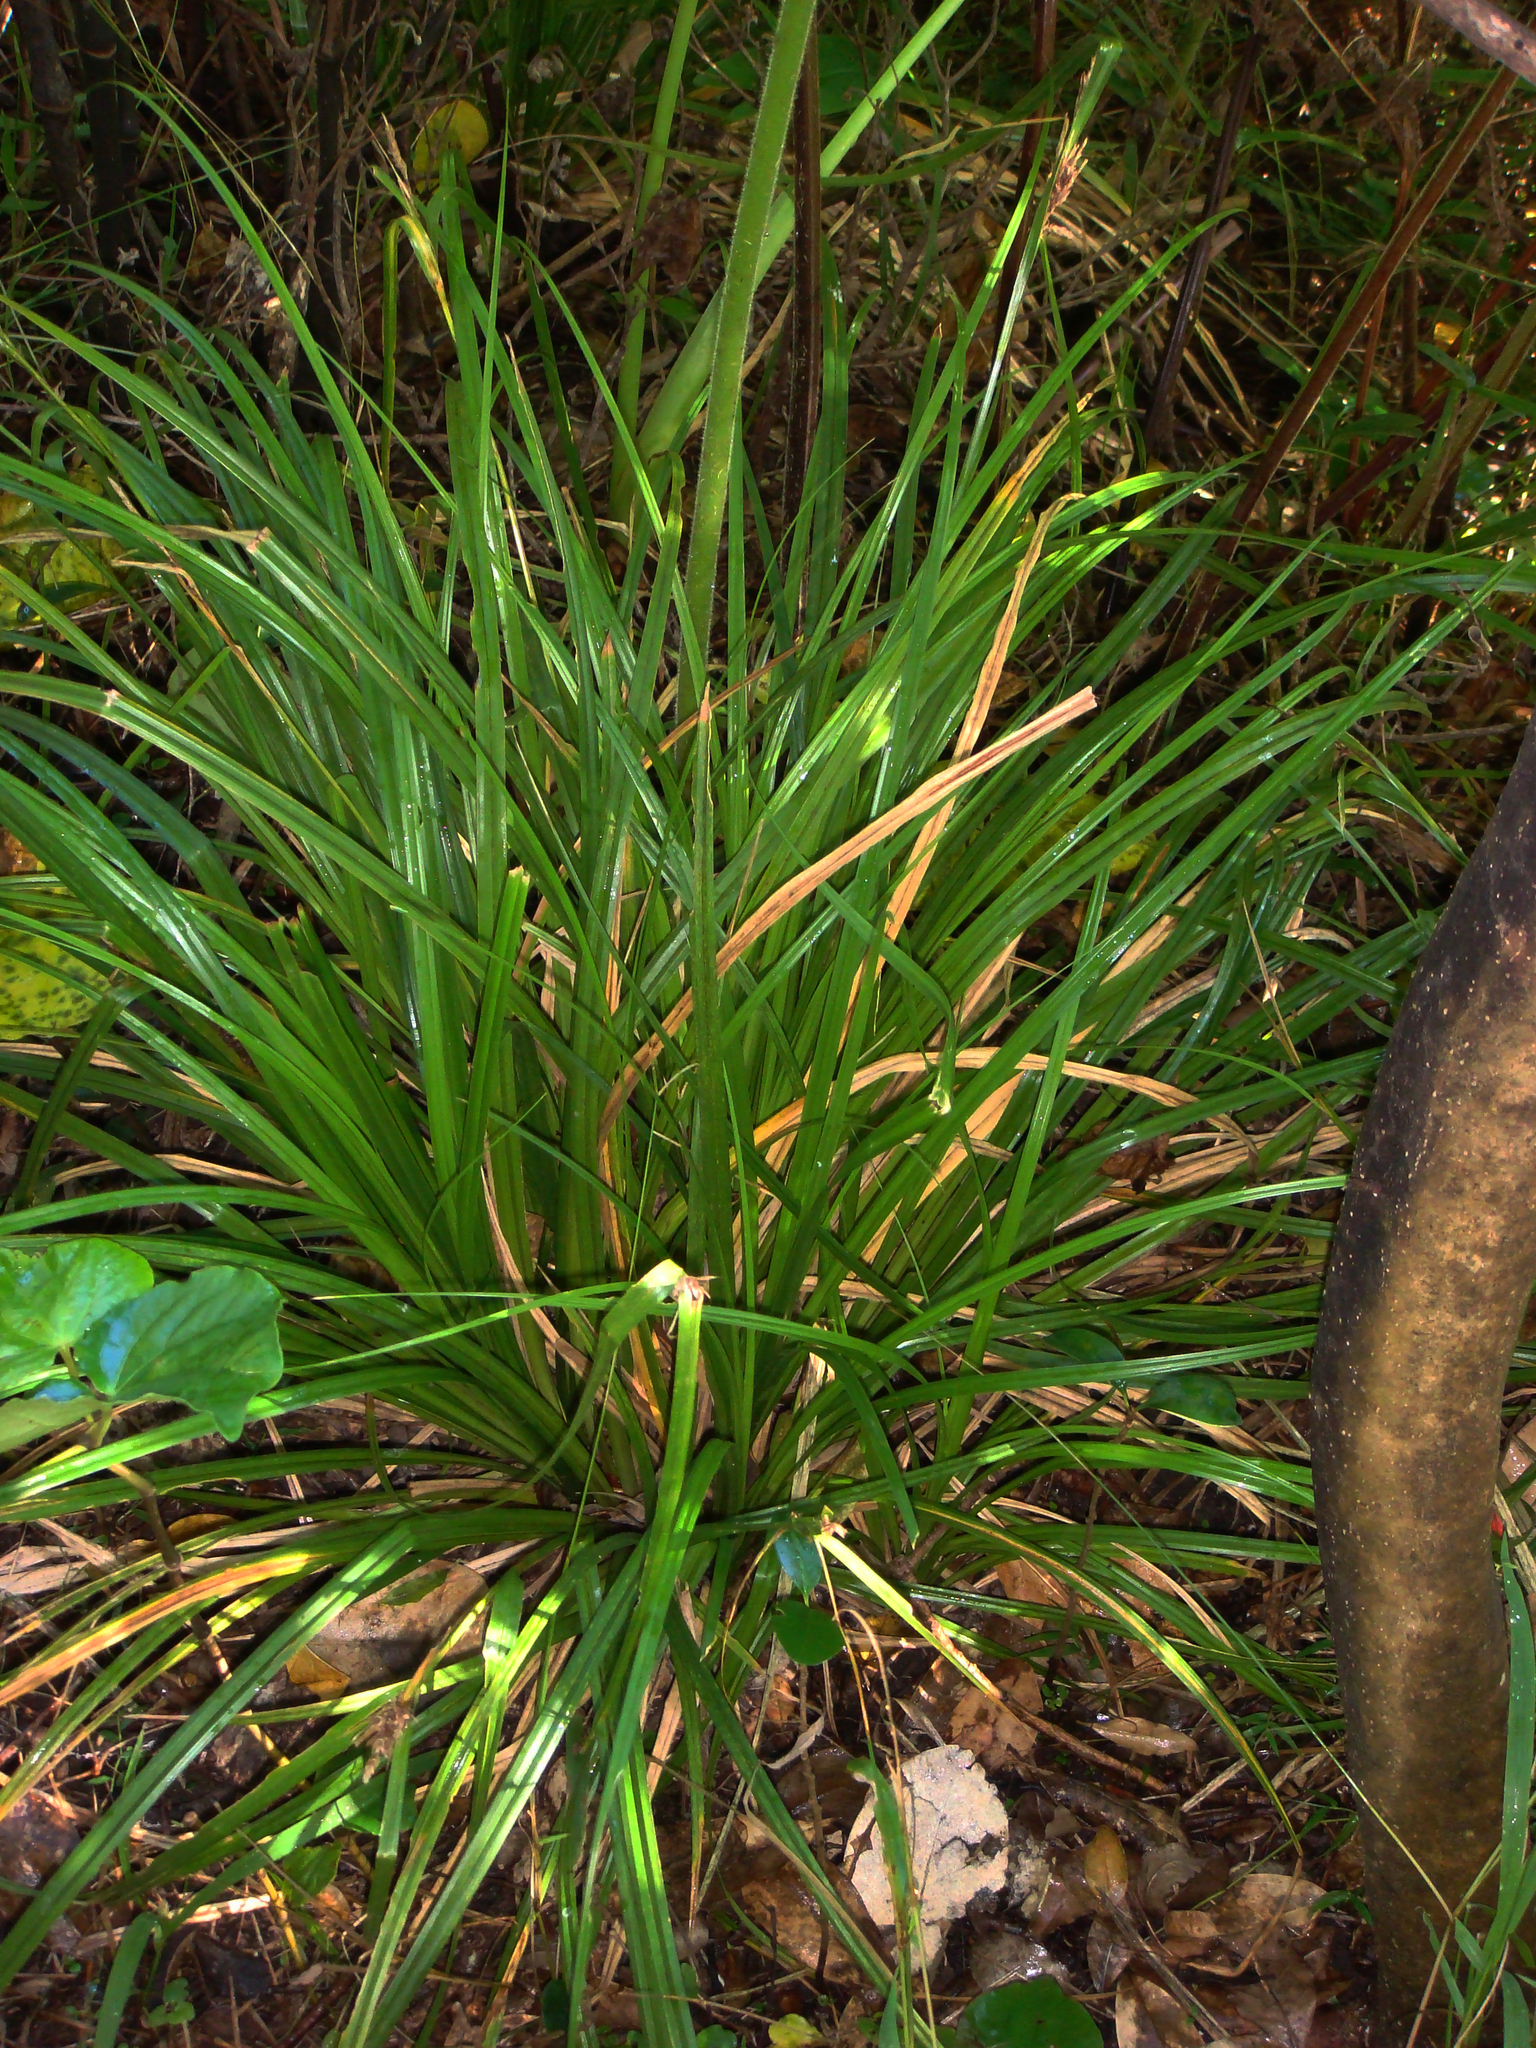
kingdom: Plantae
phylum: Tracheophyta
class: Liliopsida
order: Poales
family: Cyperaceae
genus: Carex
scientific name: Carex kermadecensis
